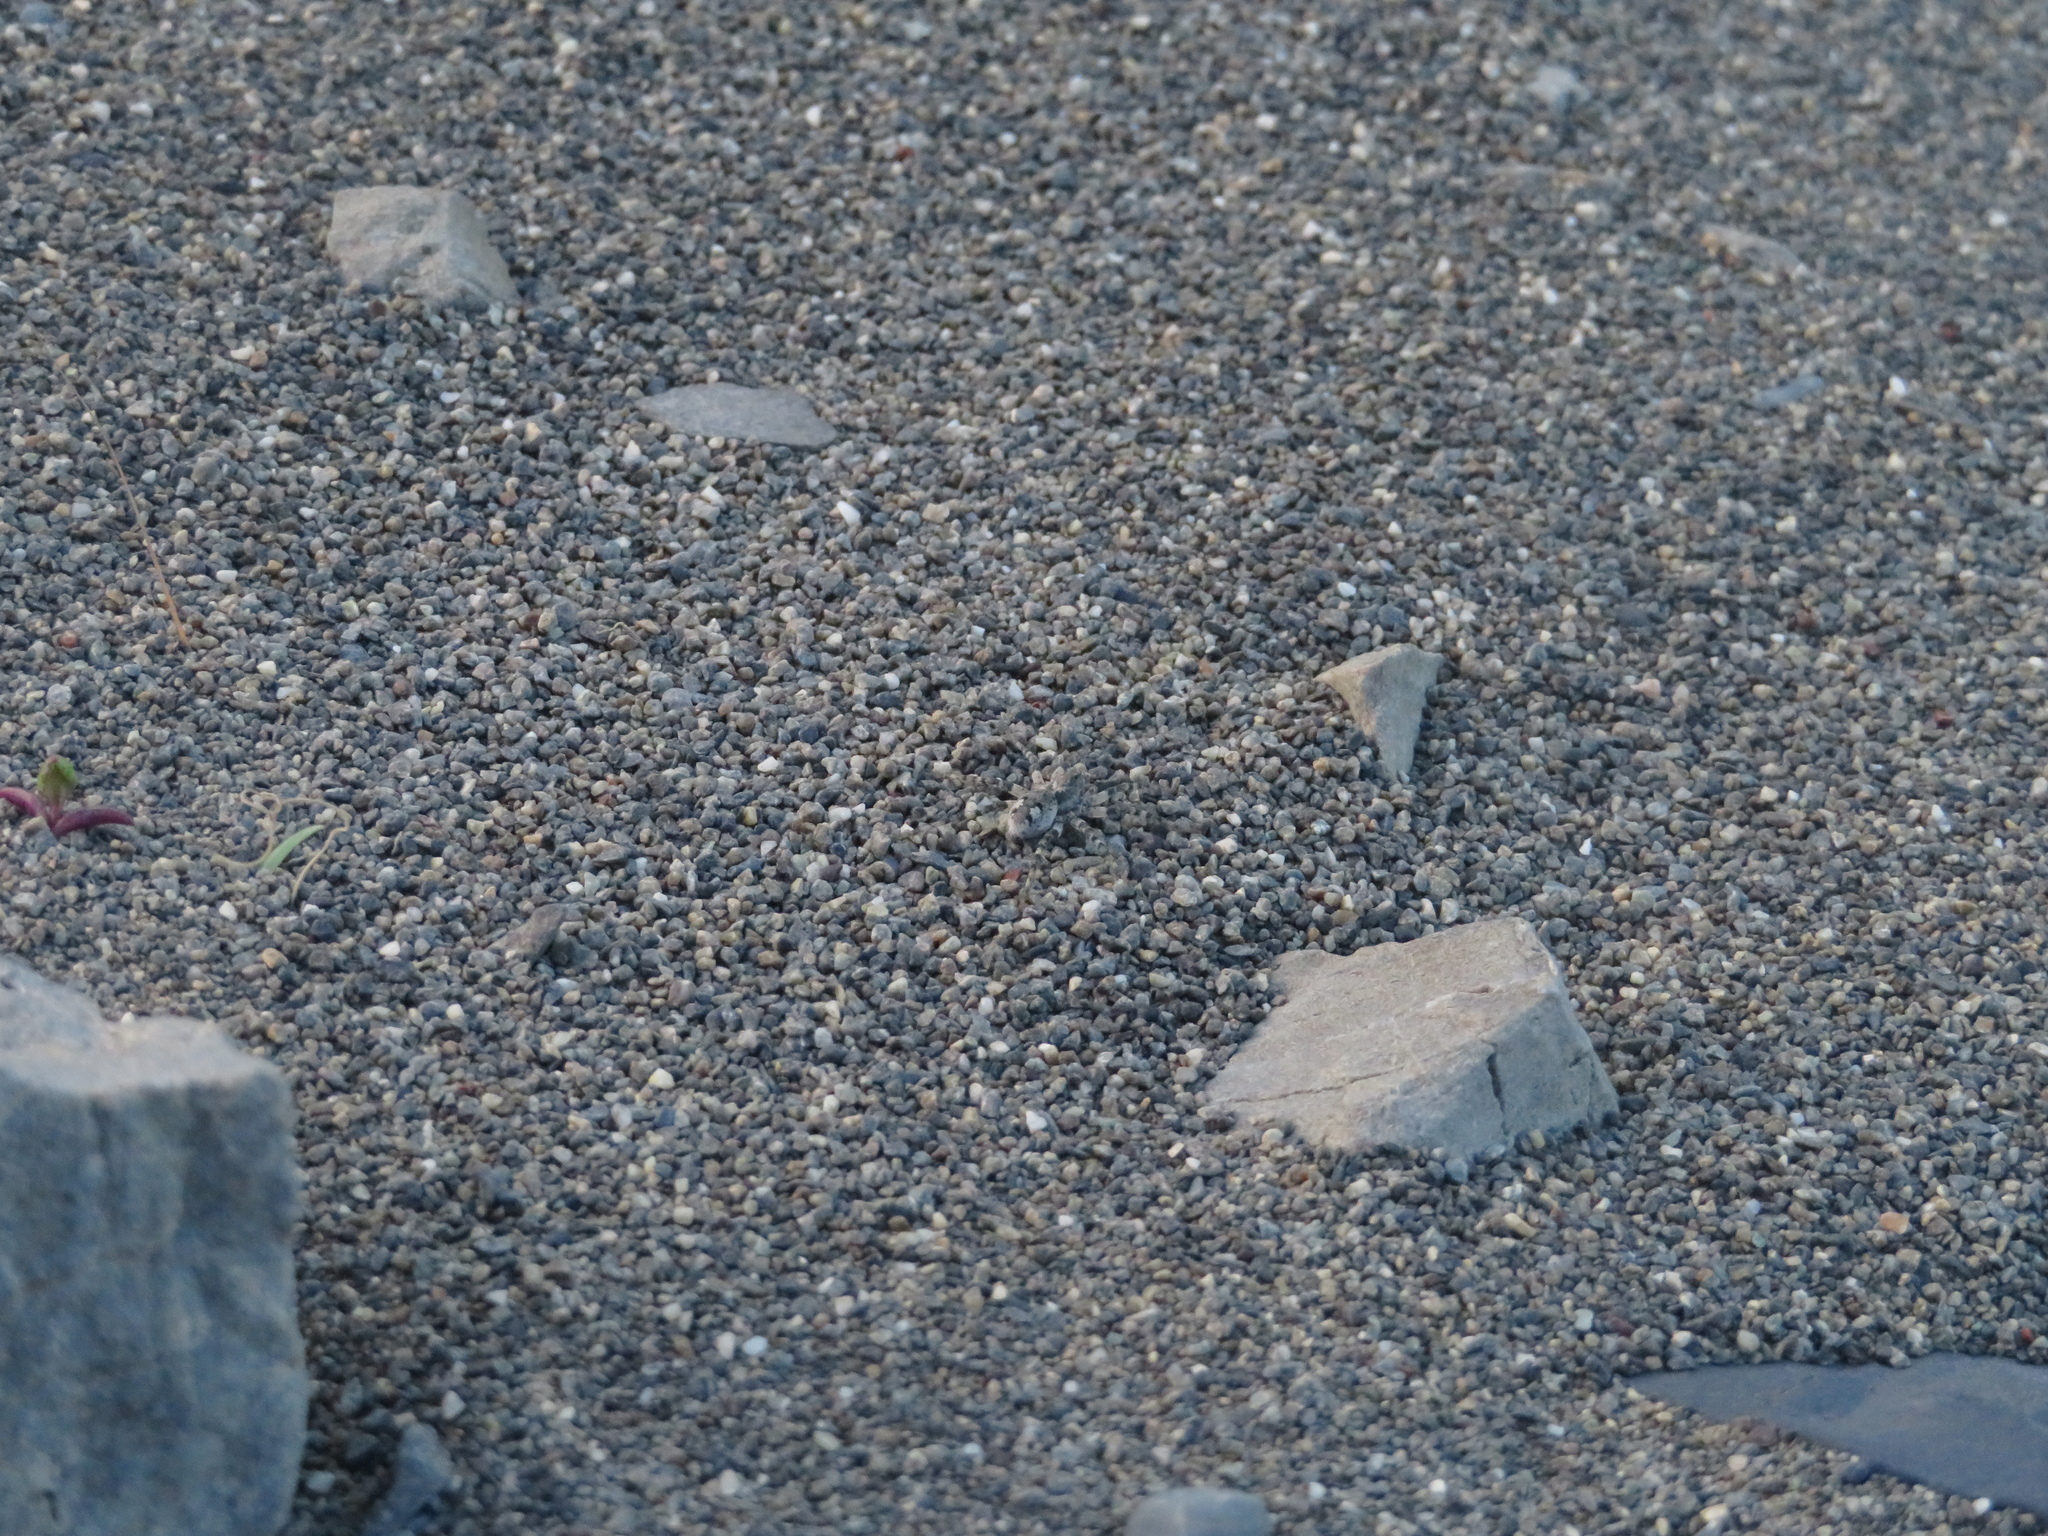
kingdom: Animalia
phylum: Arthropoda
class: Arachnida
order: Araneae
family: Lycosidae
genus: Anoteropsis
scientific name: Anoteropsis litoralis
